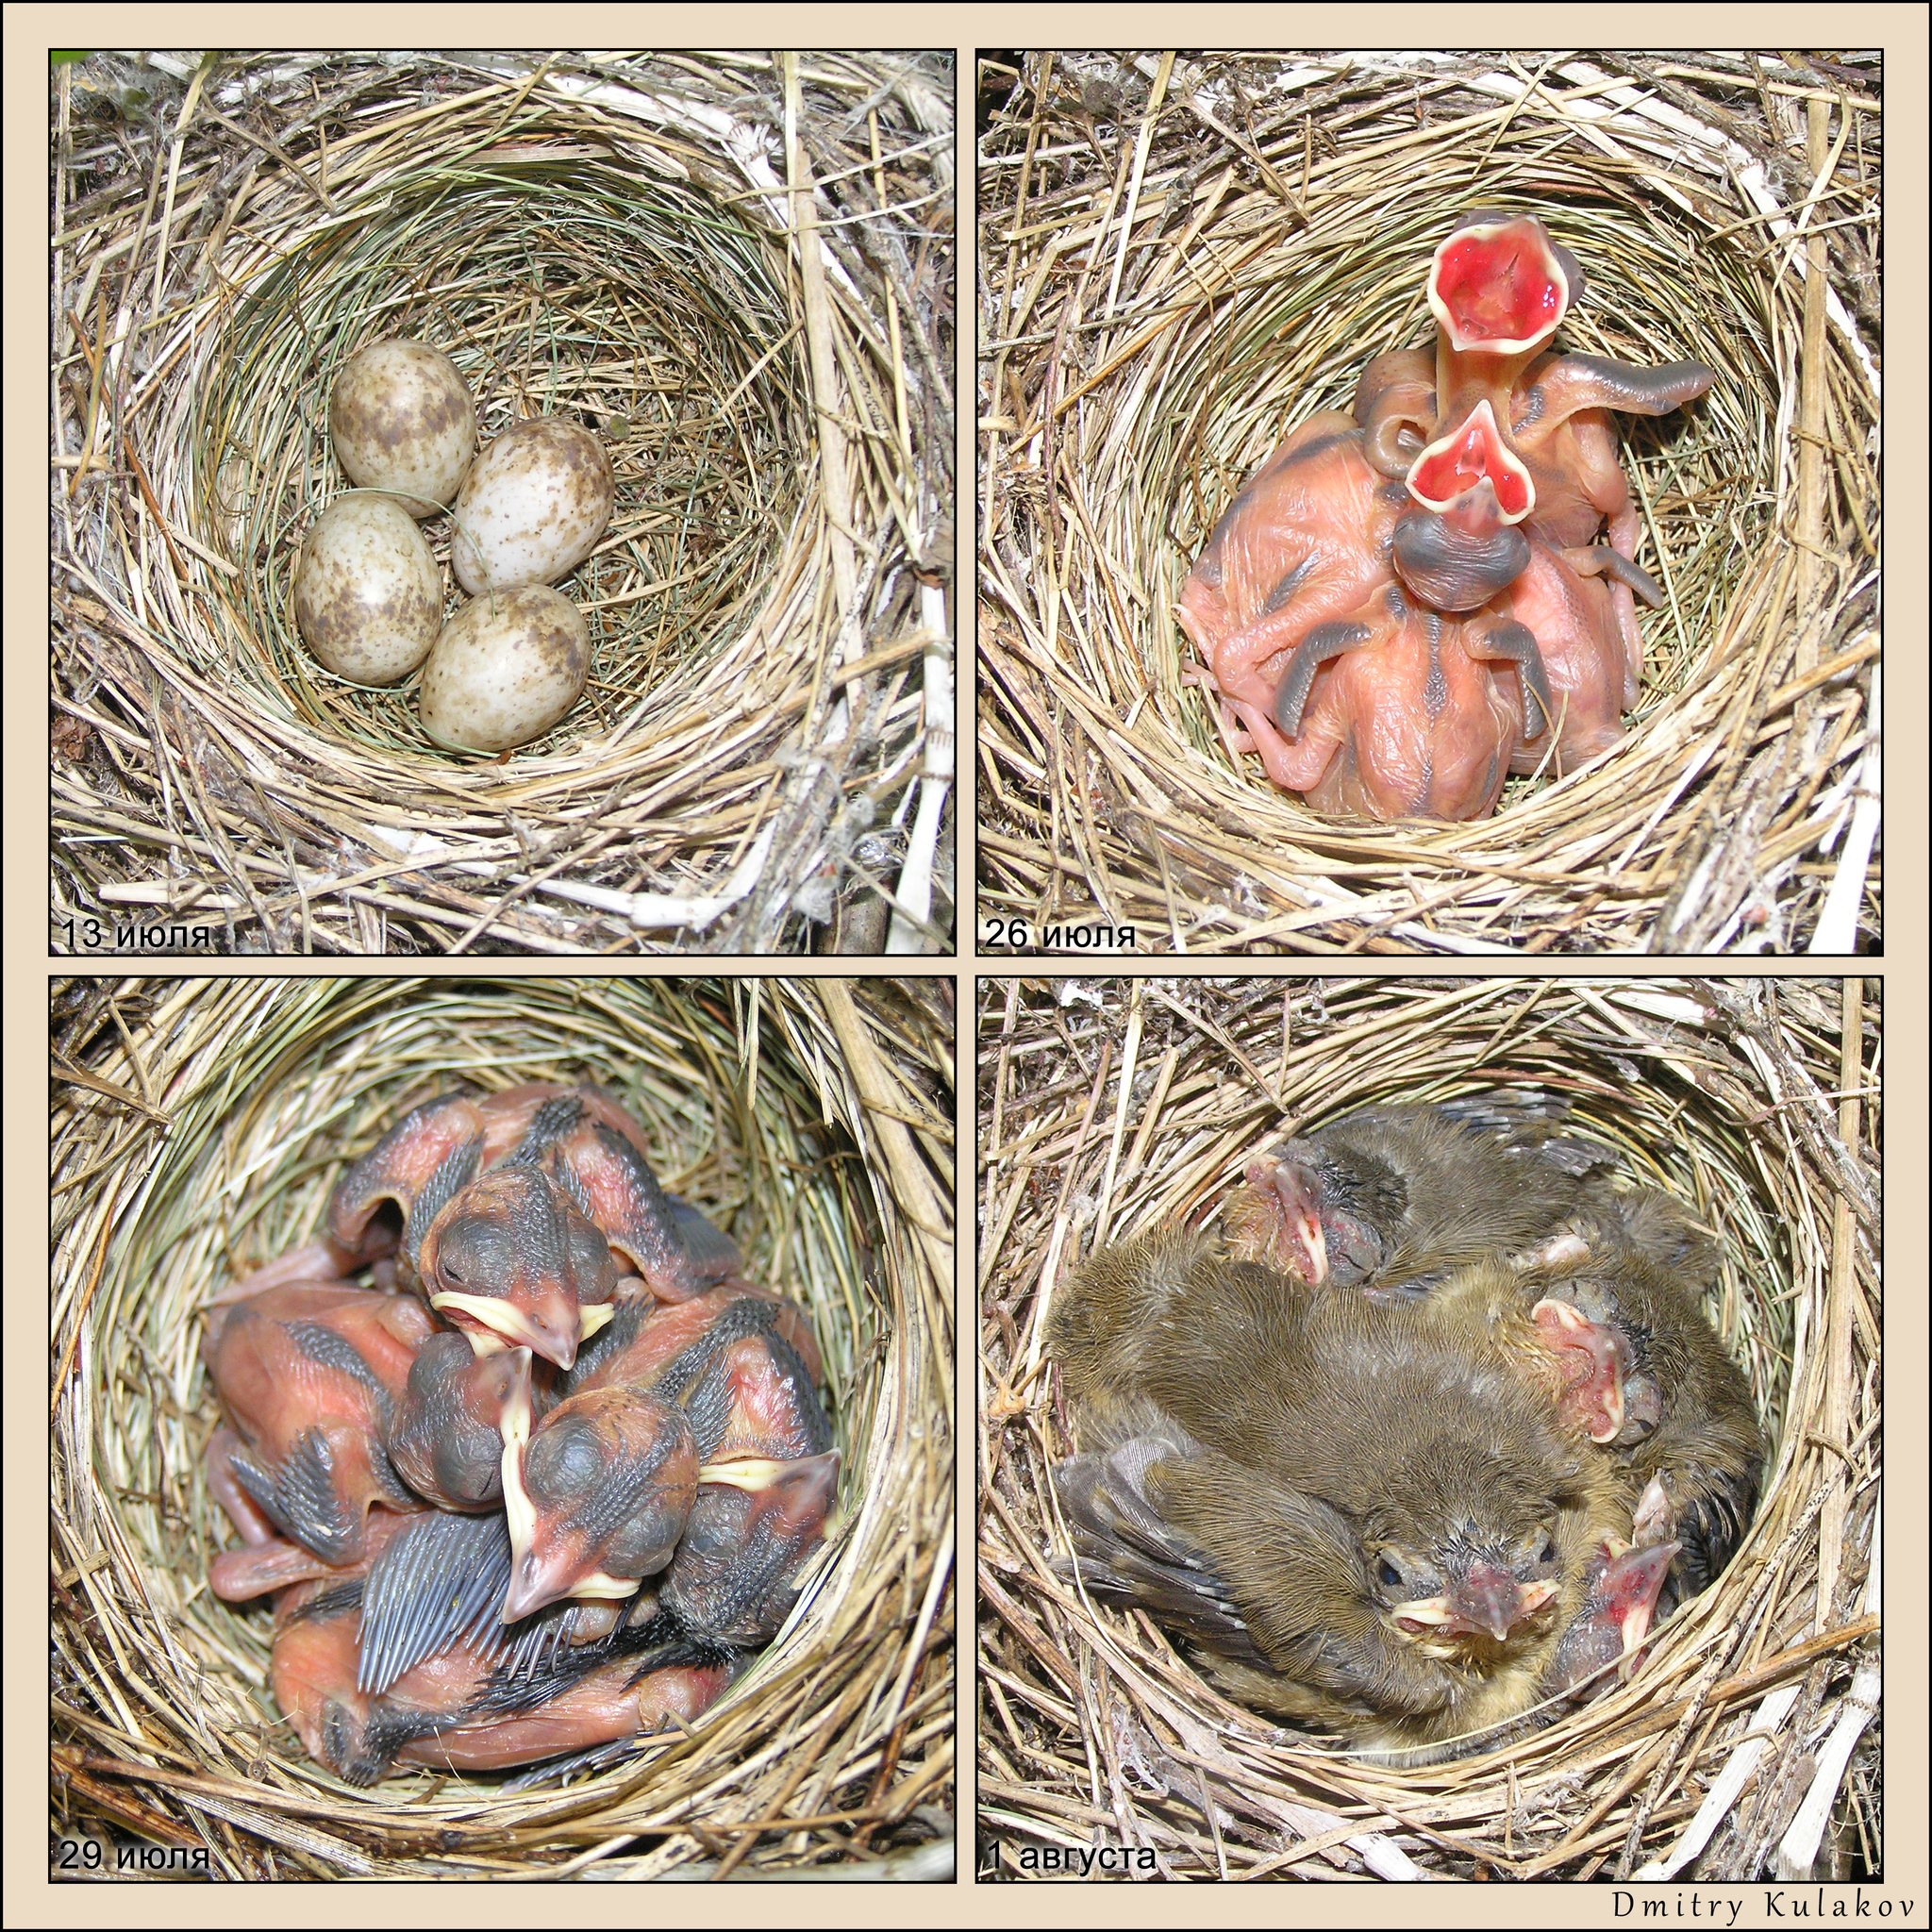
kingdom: Animalia
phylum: Chordata
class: Aves
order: Passeriformes
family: Sylviidae
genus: Sylvia
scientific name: Sylvia borin
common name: Garden warbler
